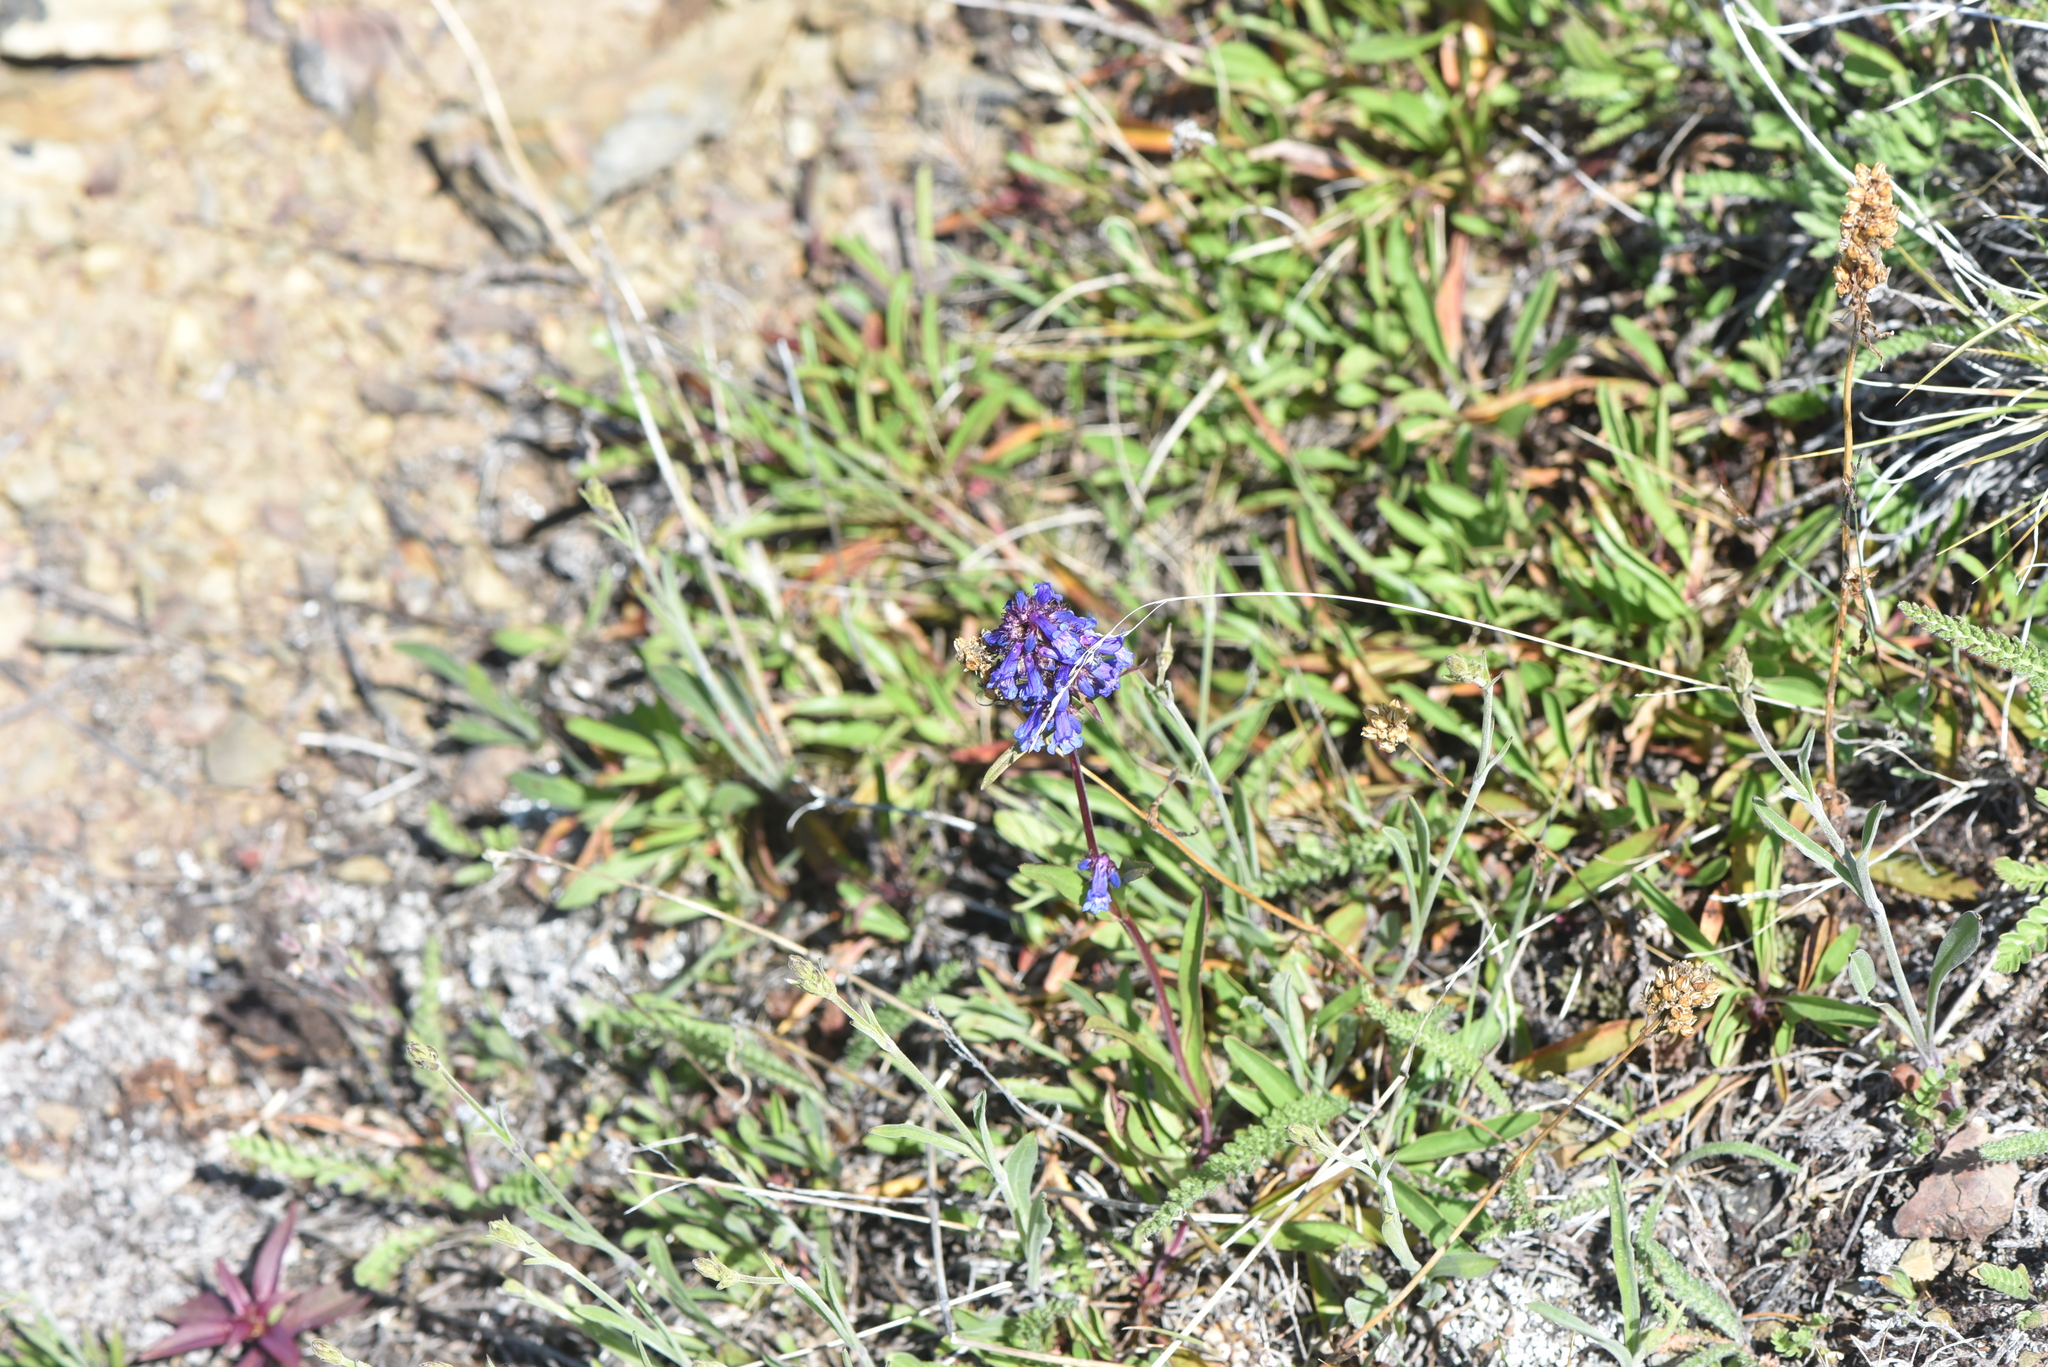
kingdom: Plantae
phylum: Tracheophyta
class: Magnoliopsida
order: Lamiales
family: Plantaginaceae
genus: Penstemon
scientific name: Penstemon procerus
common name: Small-flower penstemon
